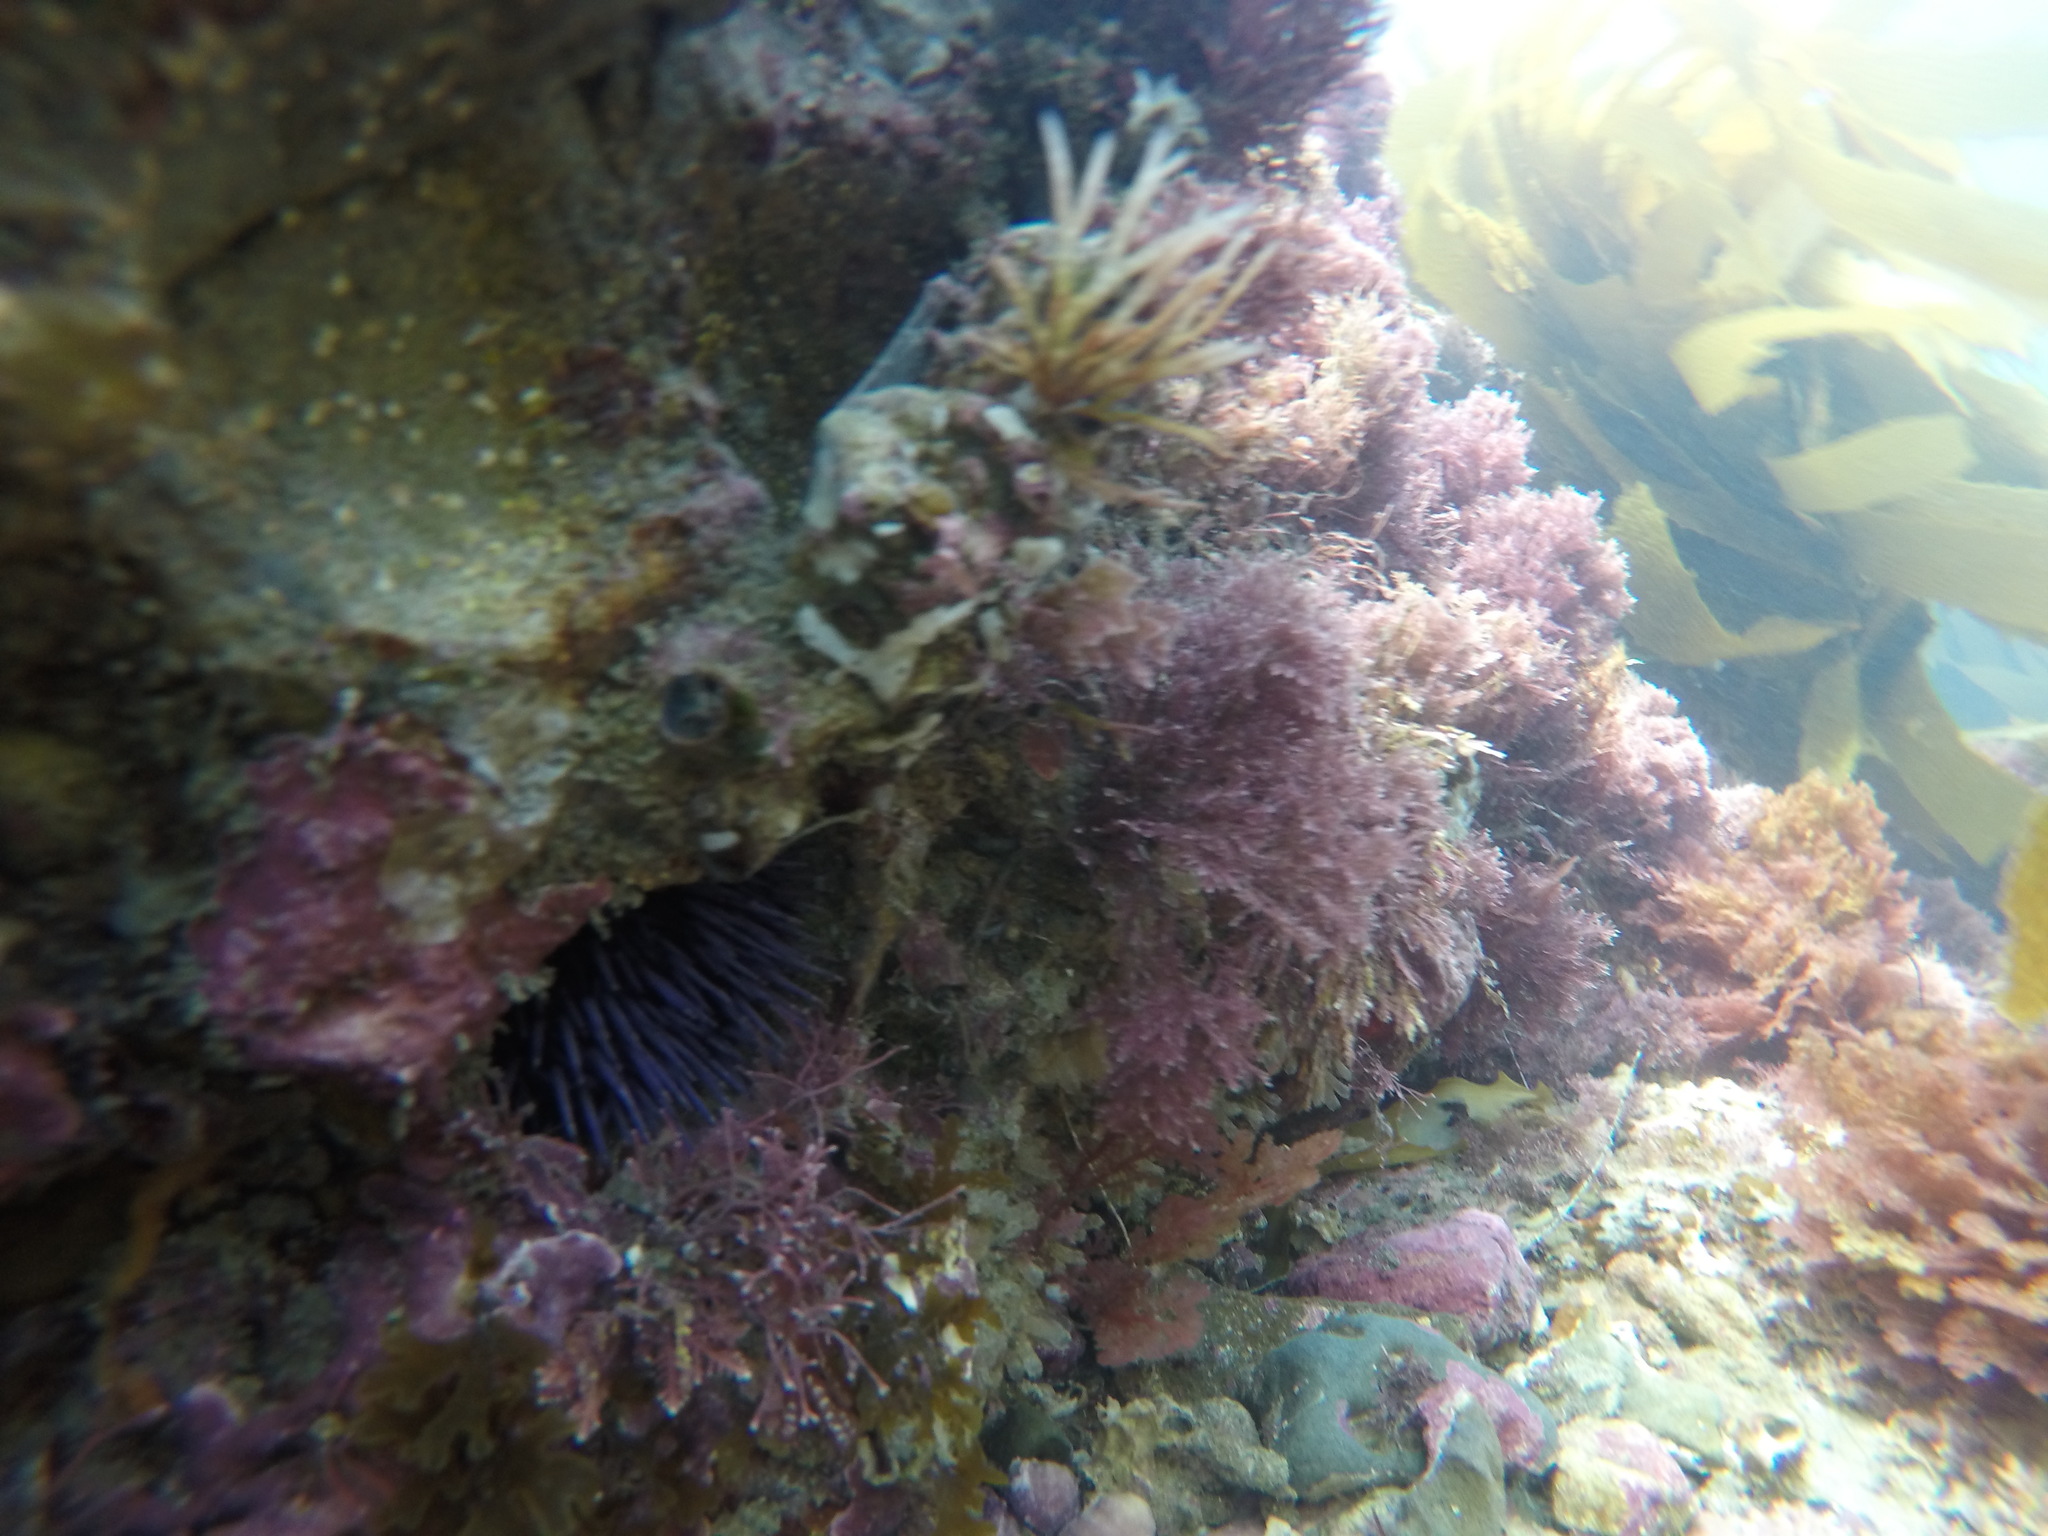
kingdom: Animalia
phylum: Echinodermata
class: Echinoidea
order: Camarodonta
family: Strongylocentrotidae
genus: Strongylocentrotus
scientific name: Strongylocentrotus purpuratus
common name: Purple sea urchin
